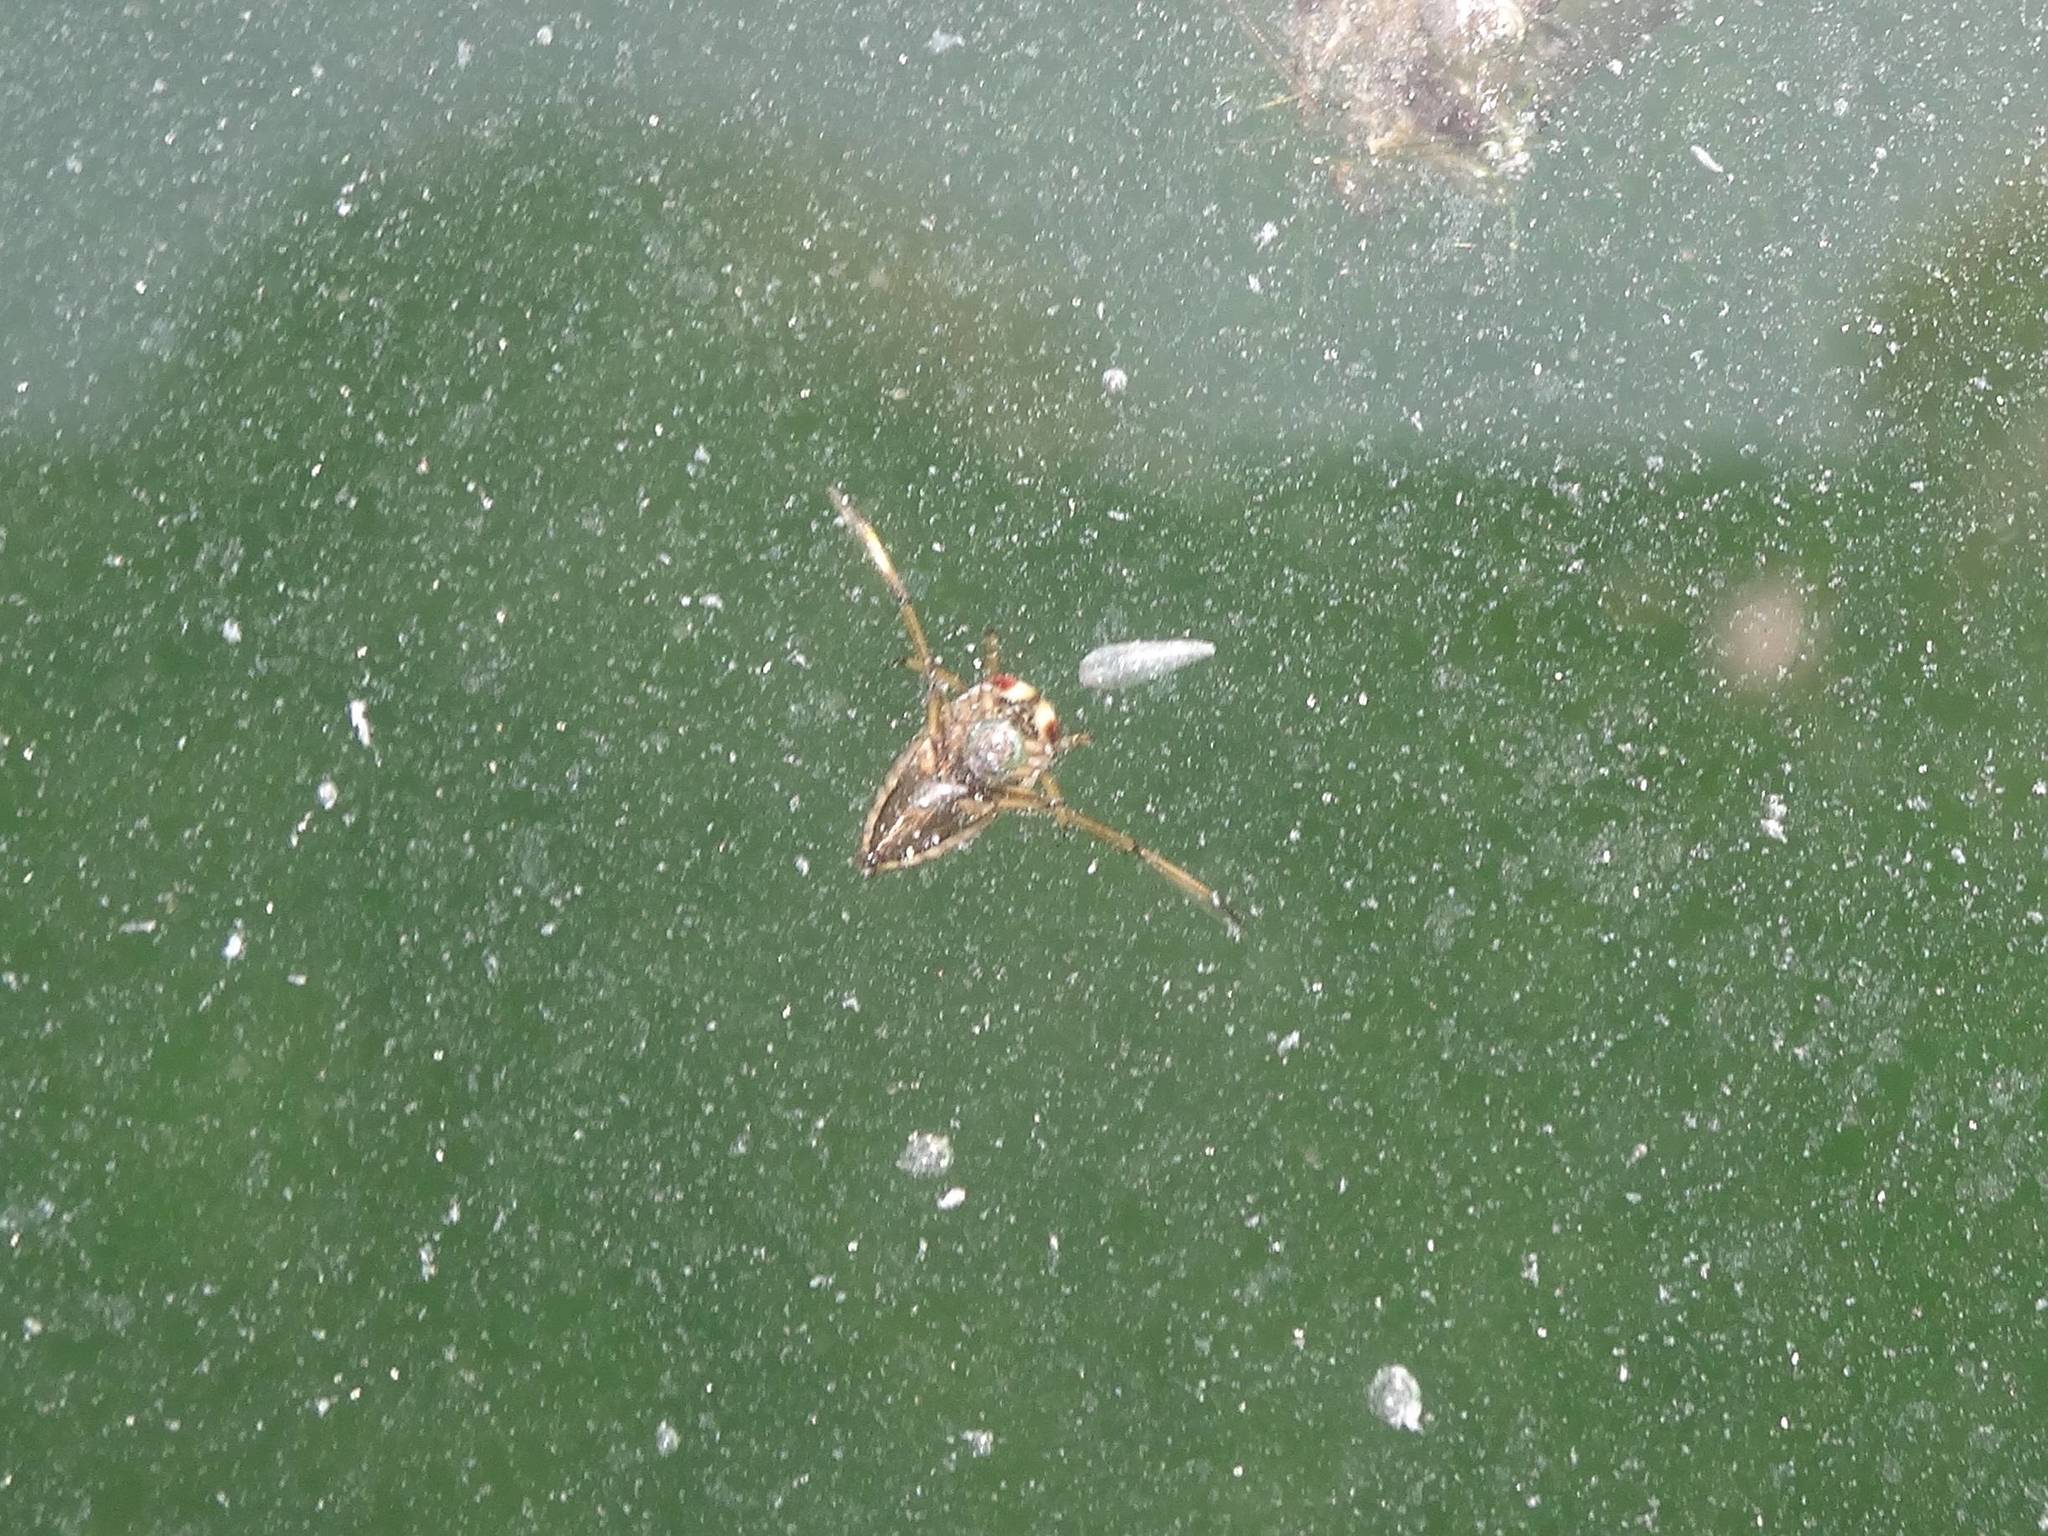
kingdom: Animalia
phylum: Arthropoda
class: Insecta
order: Hemiptera
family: Notonectidae
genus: Notonecta
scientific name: Notonecta
